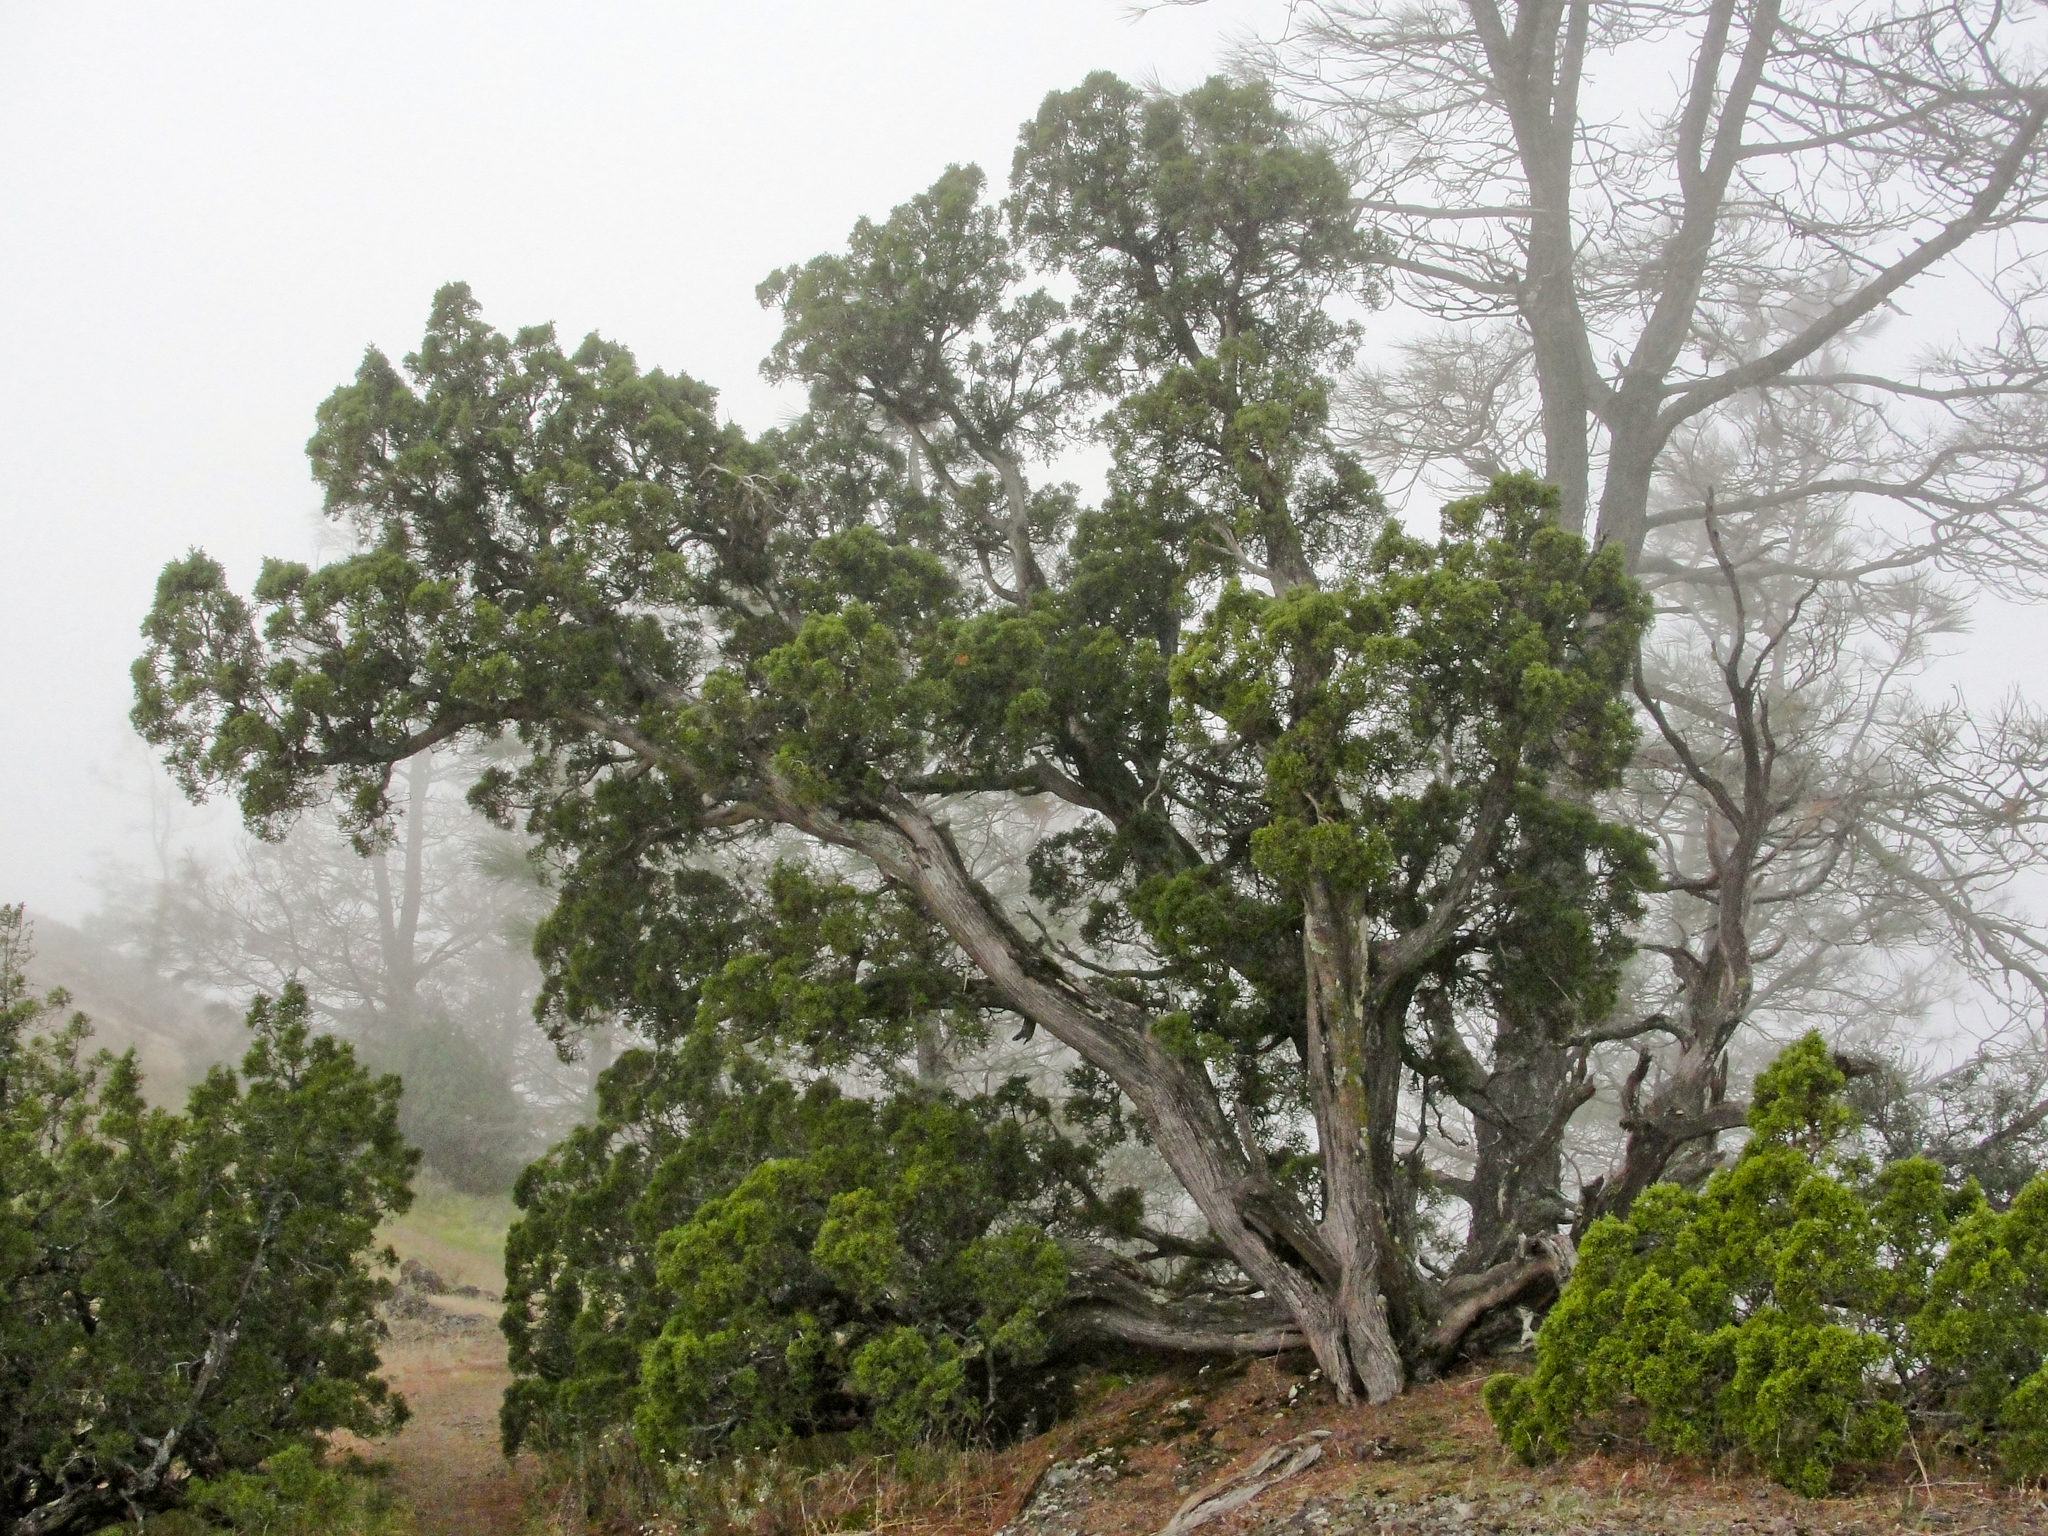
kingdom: Plantae
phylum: Tracheophyta
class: Pinopsida
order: Pinales
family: Cupressaceae
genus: Juniperus
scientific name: Juniperus californica
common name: California juniper
